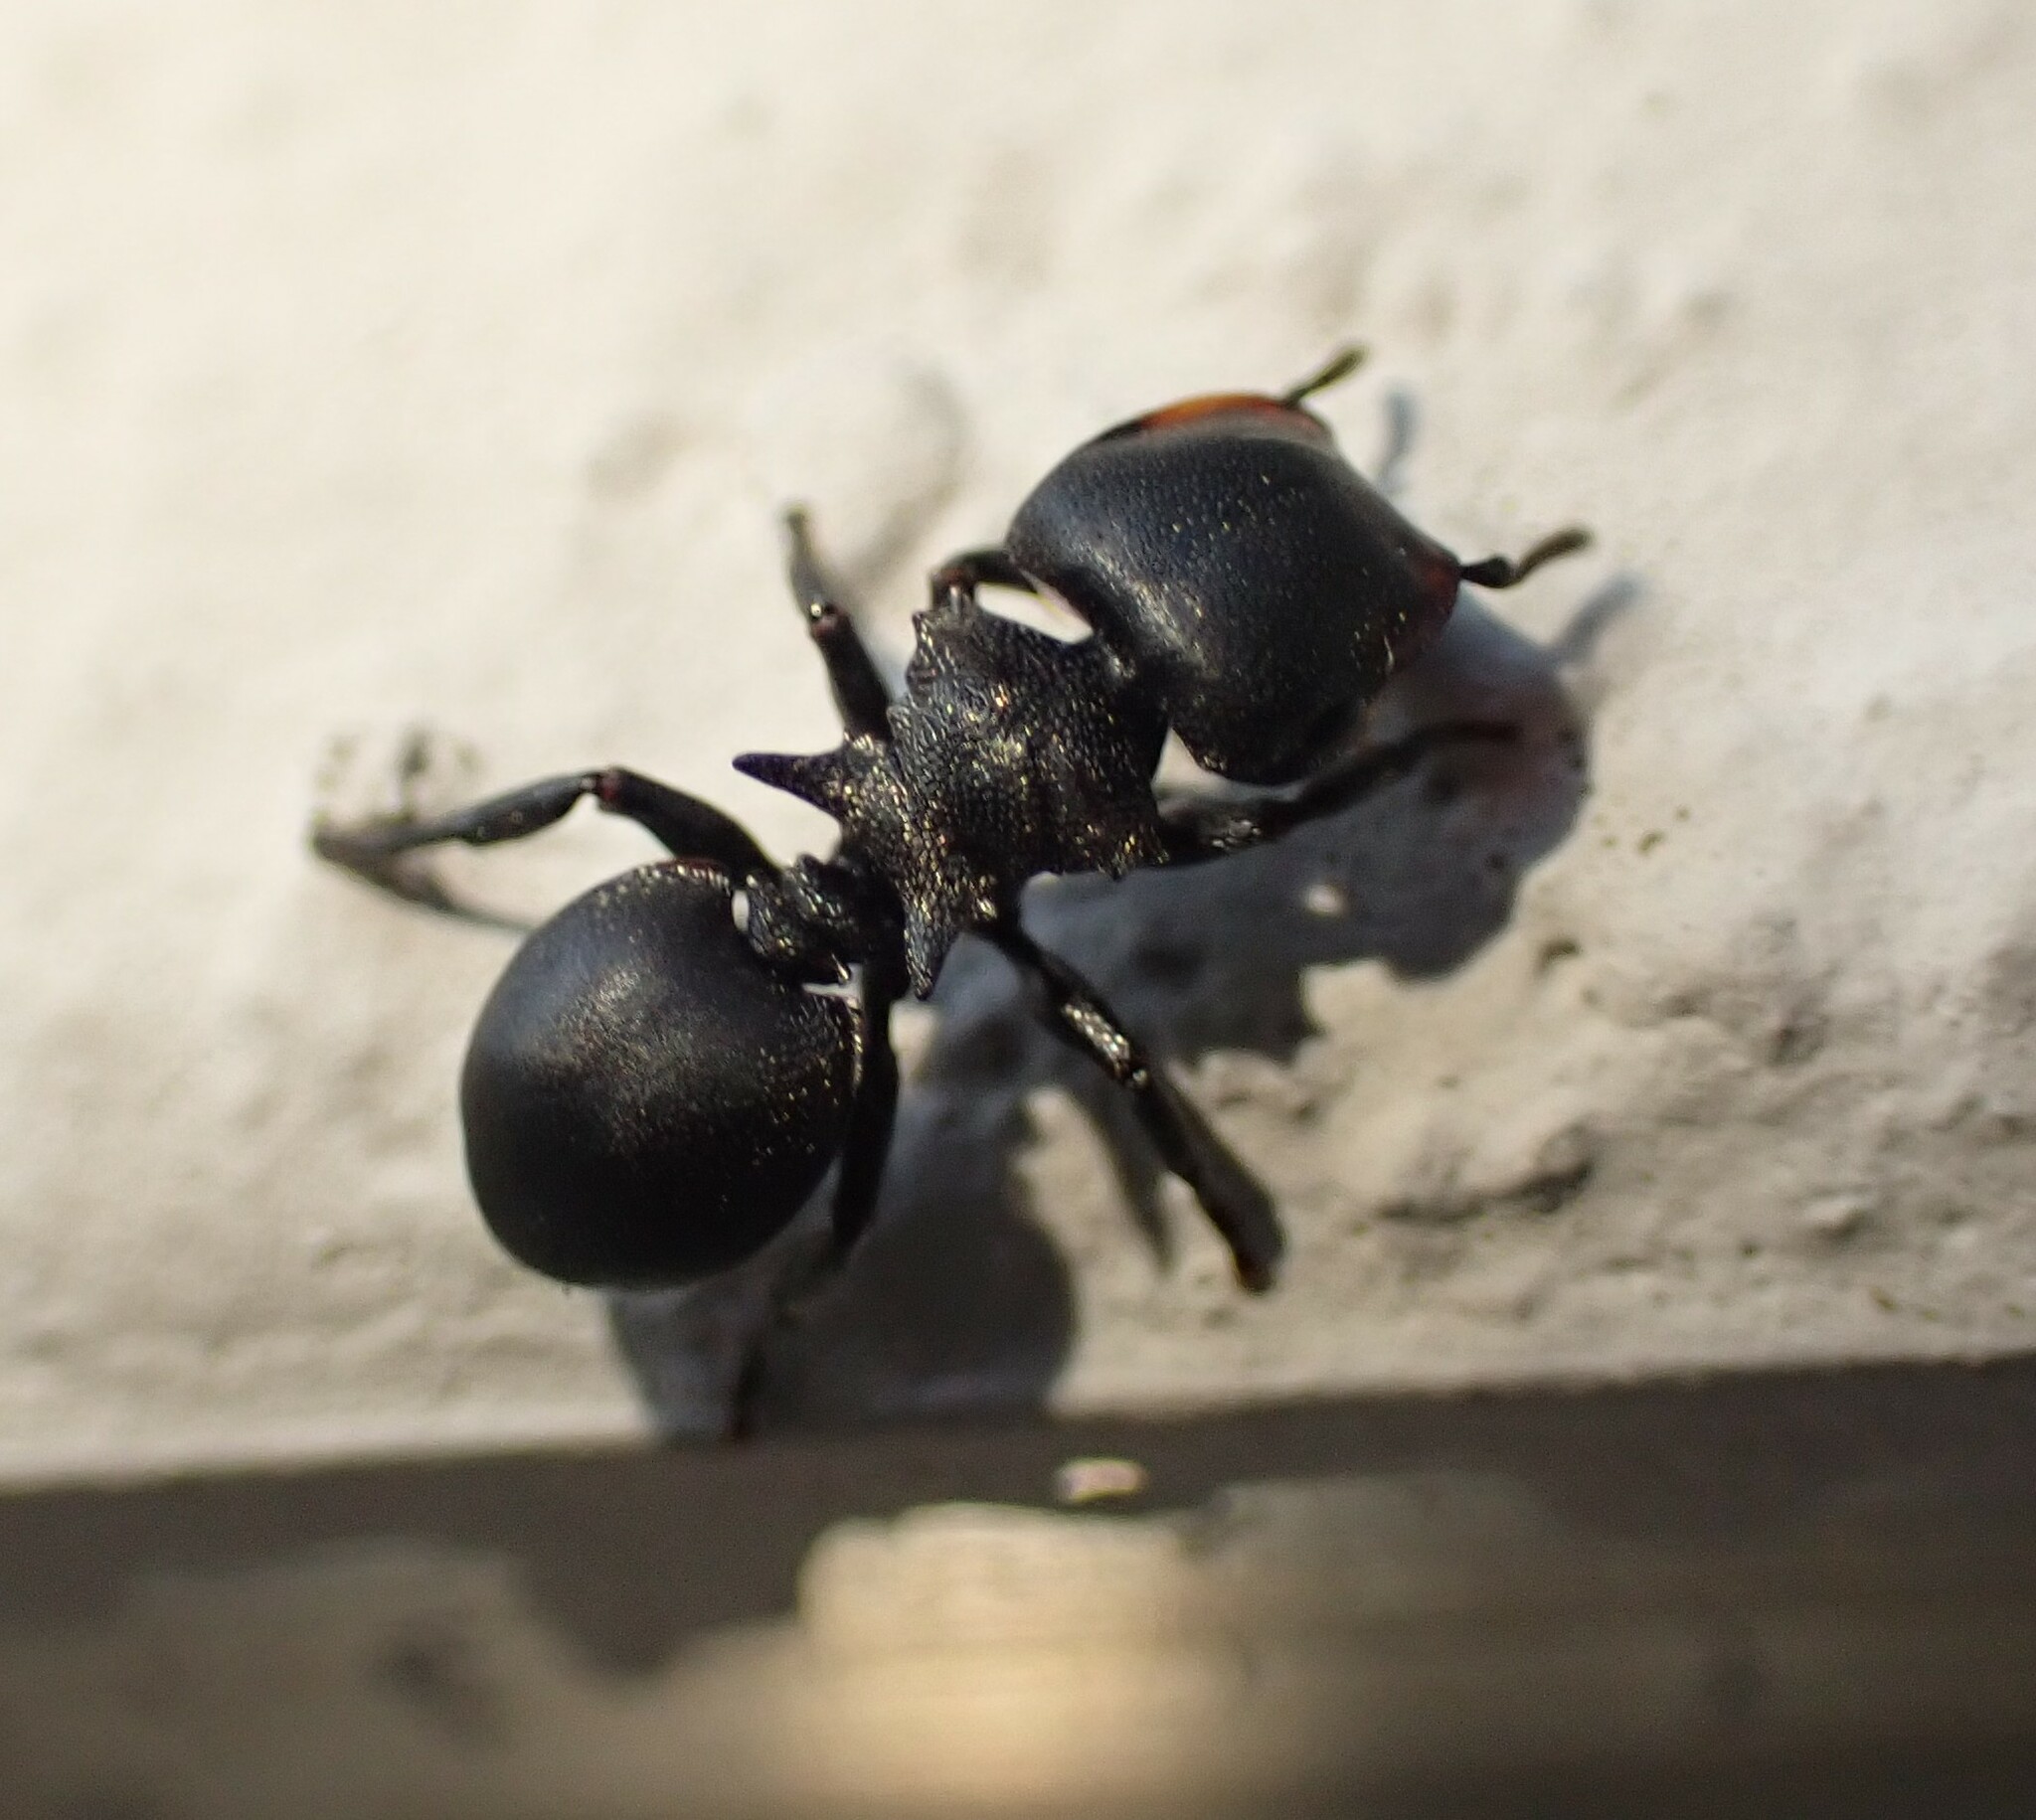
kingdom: Animalia
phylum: Arthropoda
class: Insecta
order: Hymenoptera
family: Formicidae
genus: Cephalotes
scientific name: Cephalotes pusillus
